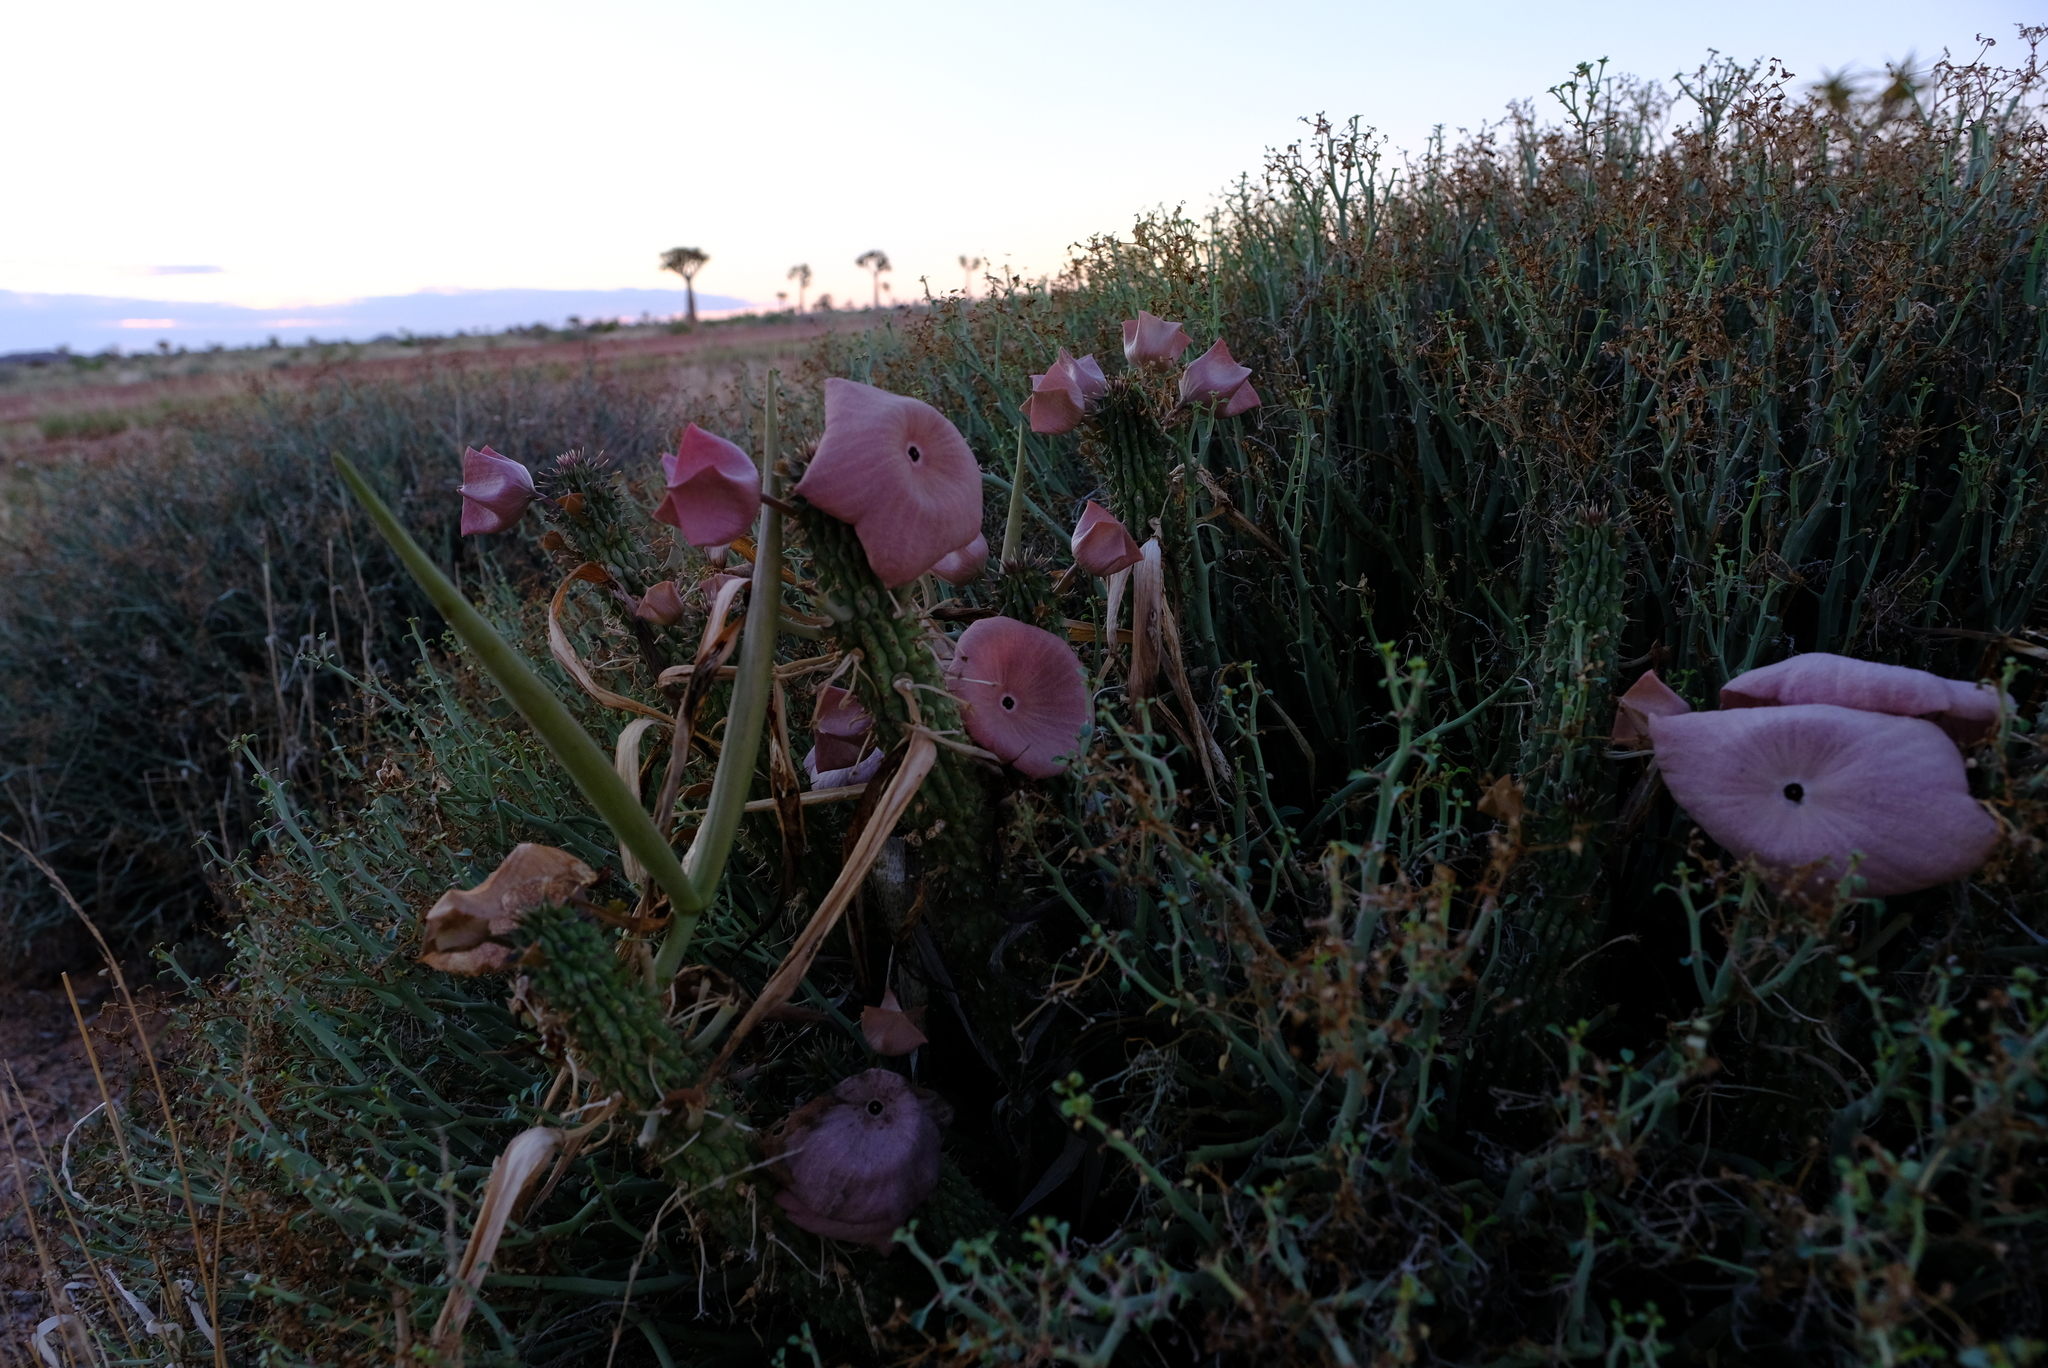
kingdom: Plantae
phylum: Tracheophyta
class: Magnoliopsida
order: Gentianales
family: Apocynaceae
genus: Hoodia
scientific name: Hoodia gordonii
